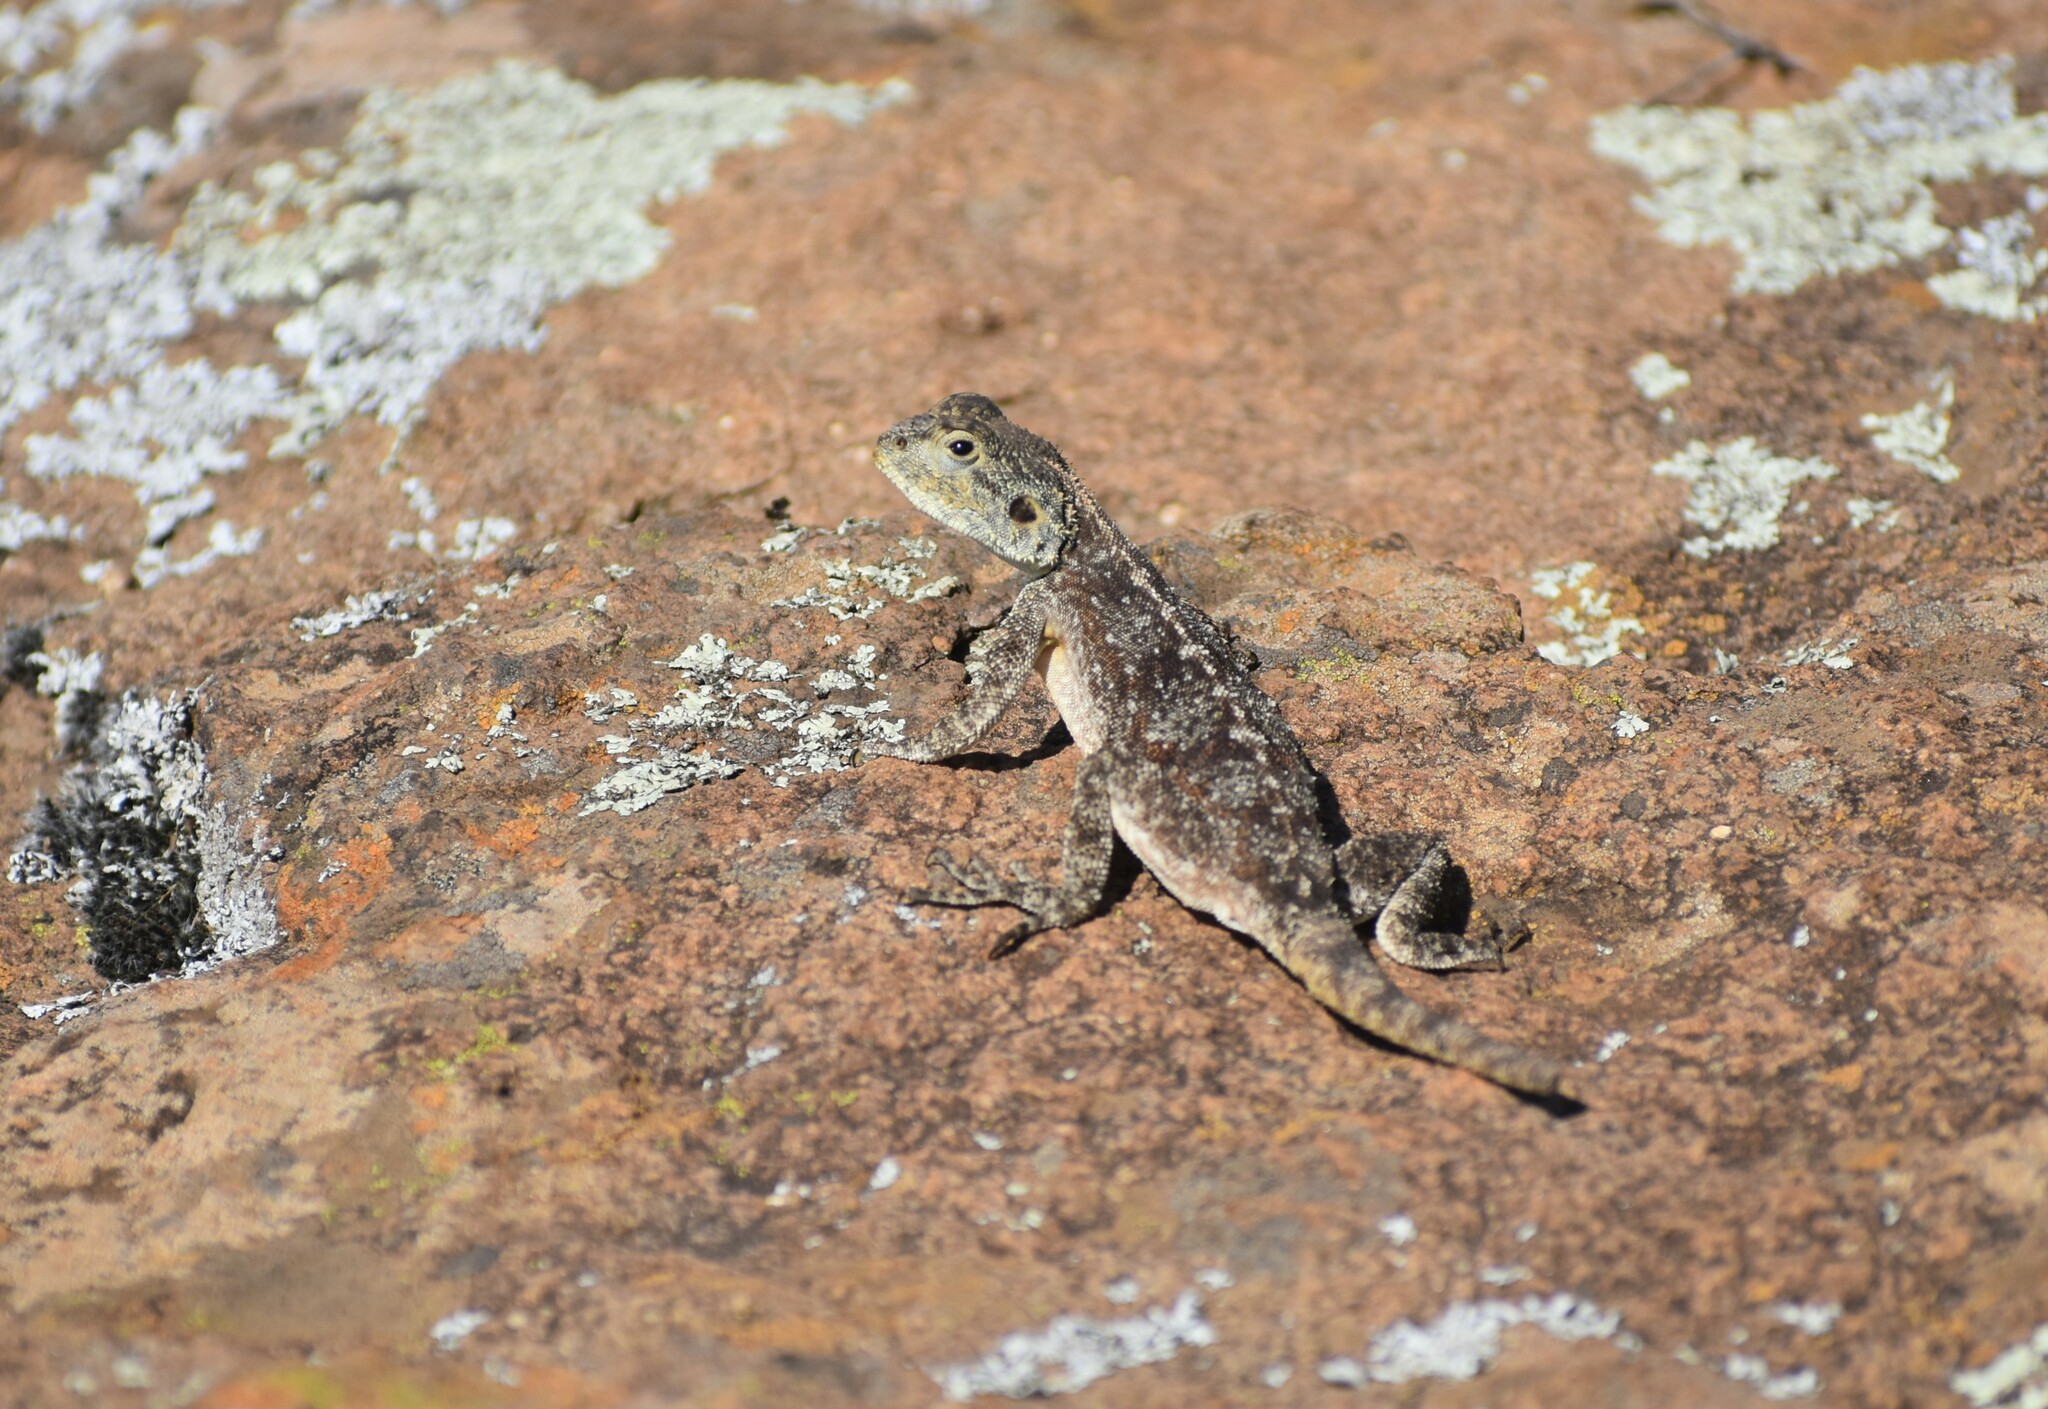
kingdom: Animalia
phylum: Chordata
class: Squamata
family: Agamidae
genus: Agama
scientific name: Agama atra
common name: Southern african rock agama
